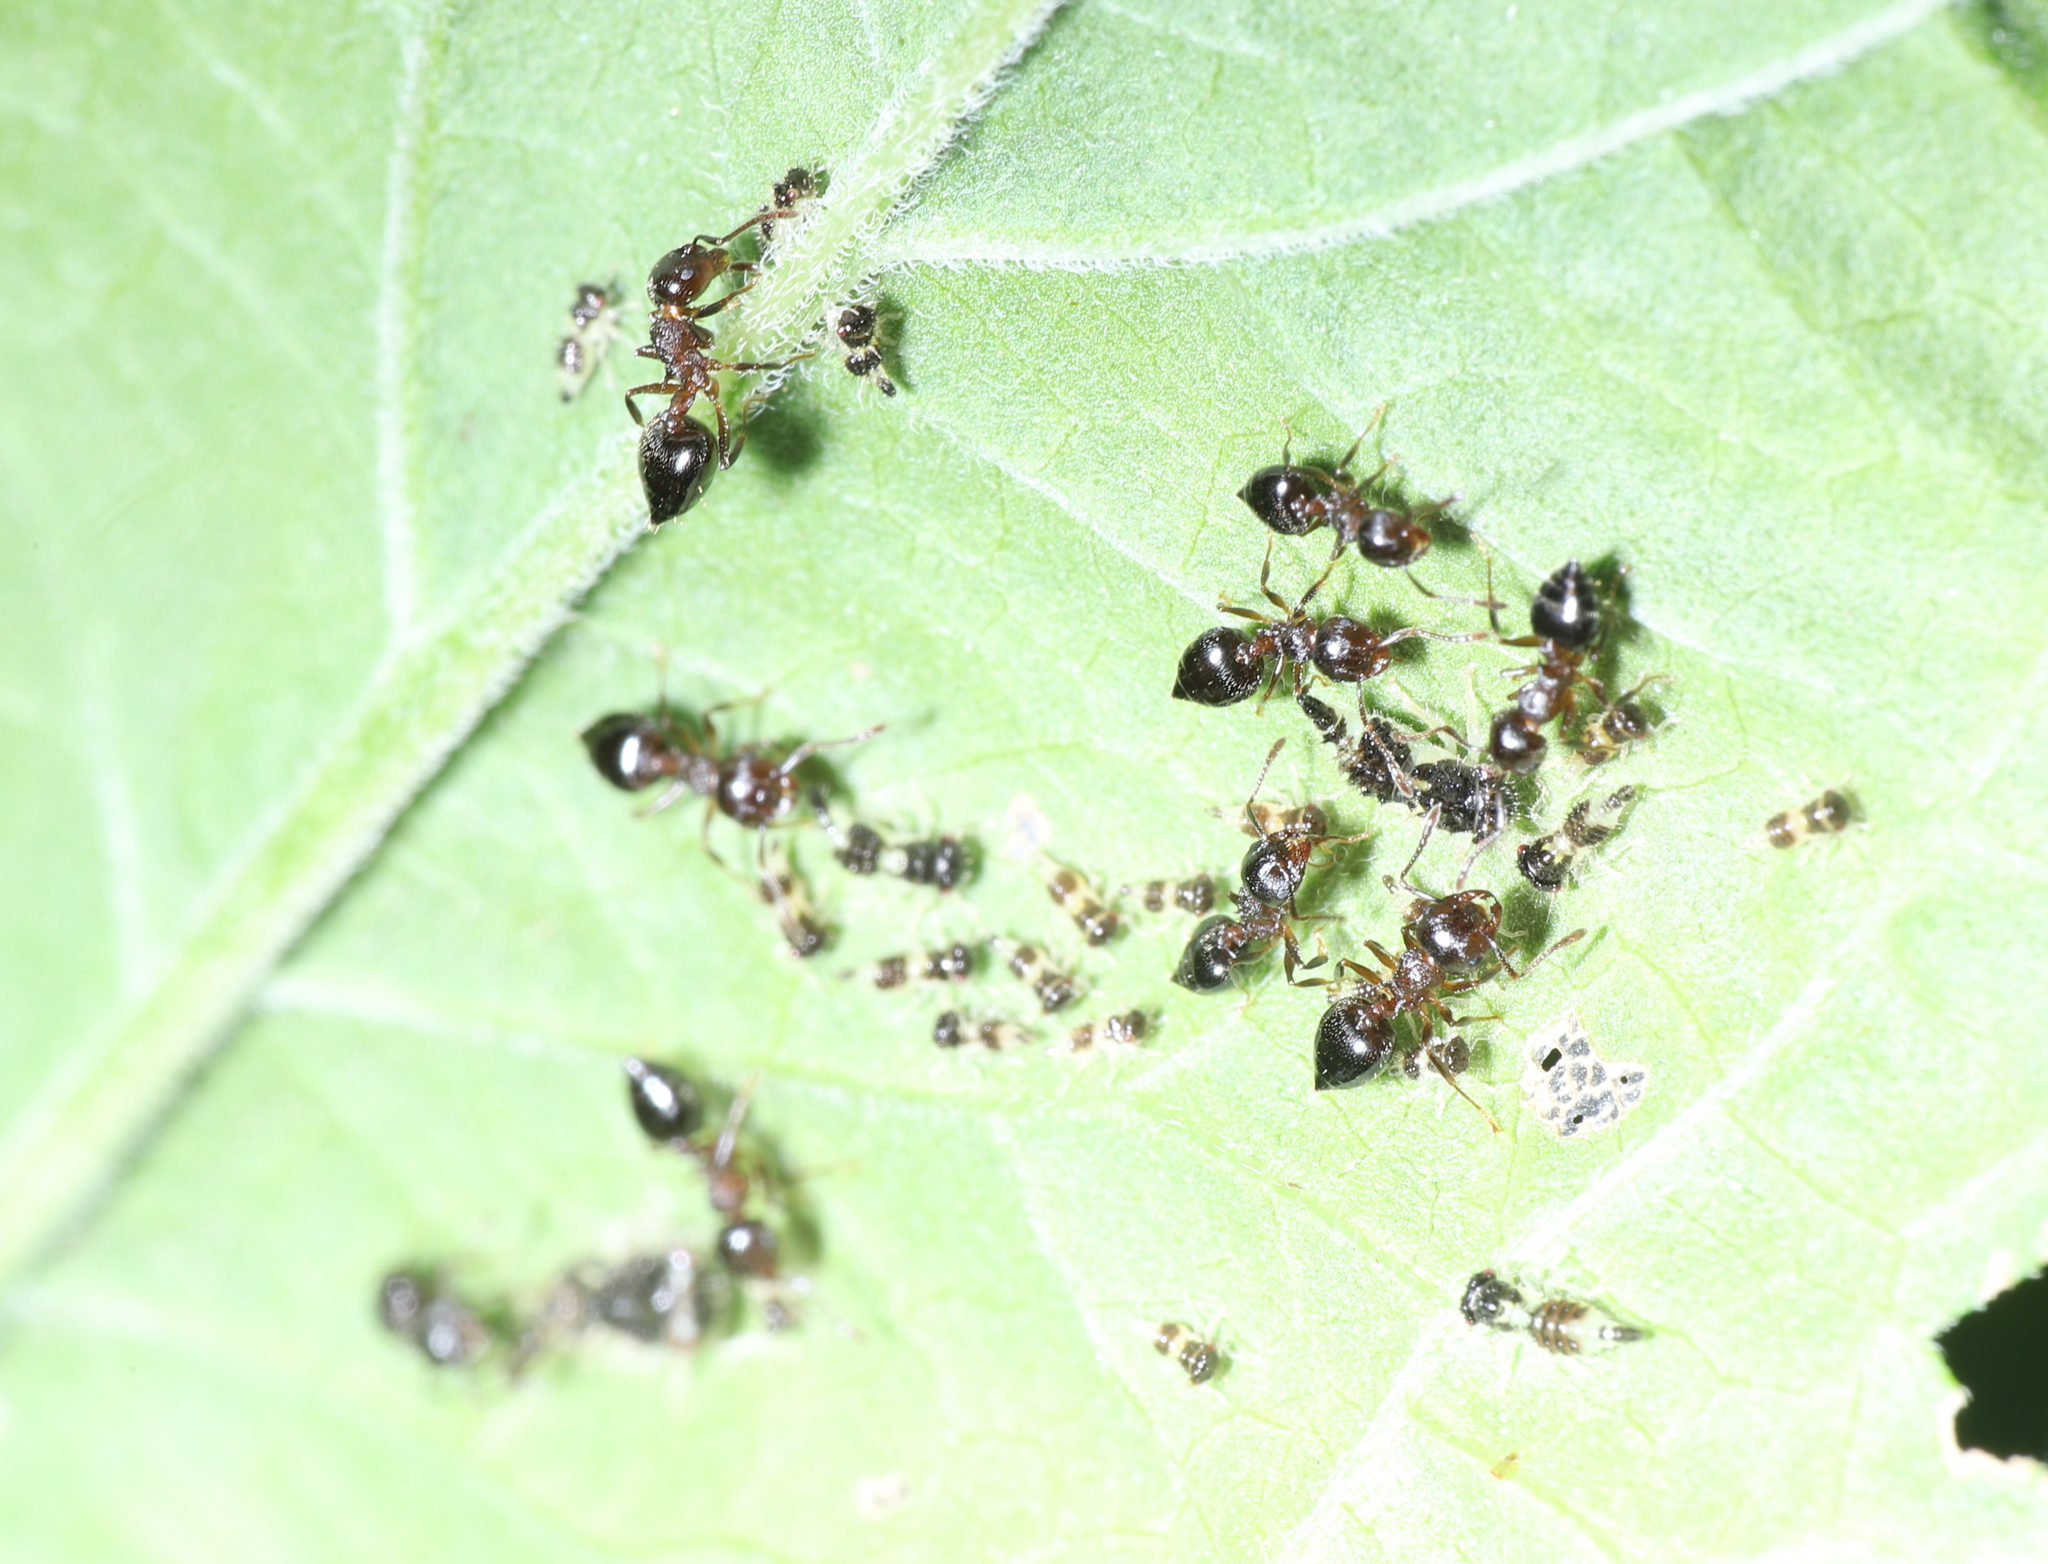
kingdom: Animalia
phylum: Arthropoda
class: Insecta
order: Hymenoptera
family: Formicidae
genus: Crematogaster
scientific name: Crematogaster
